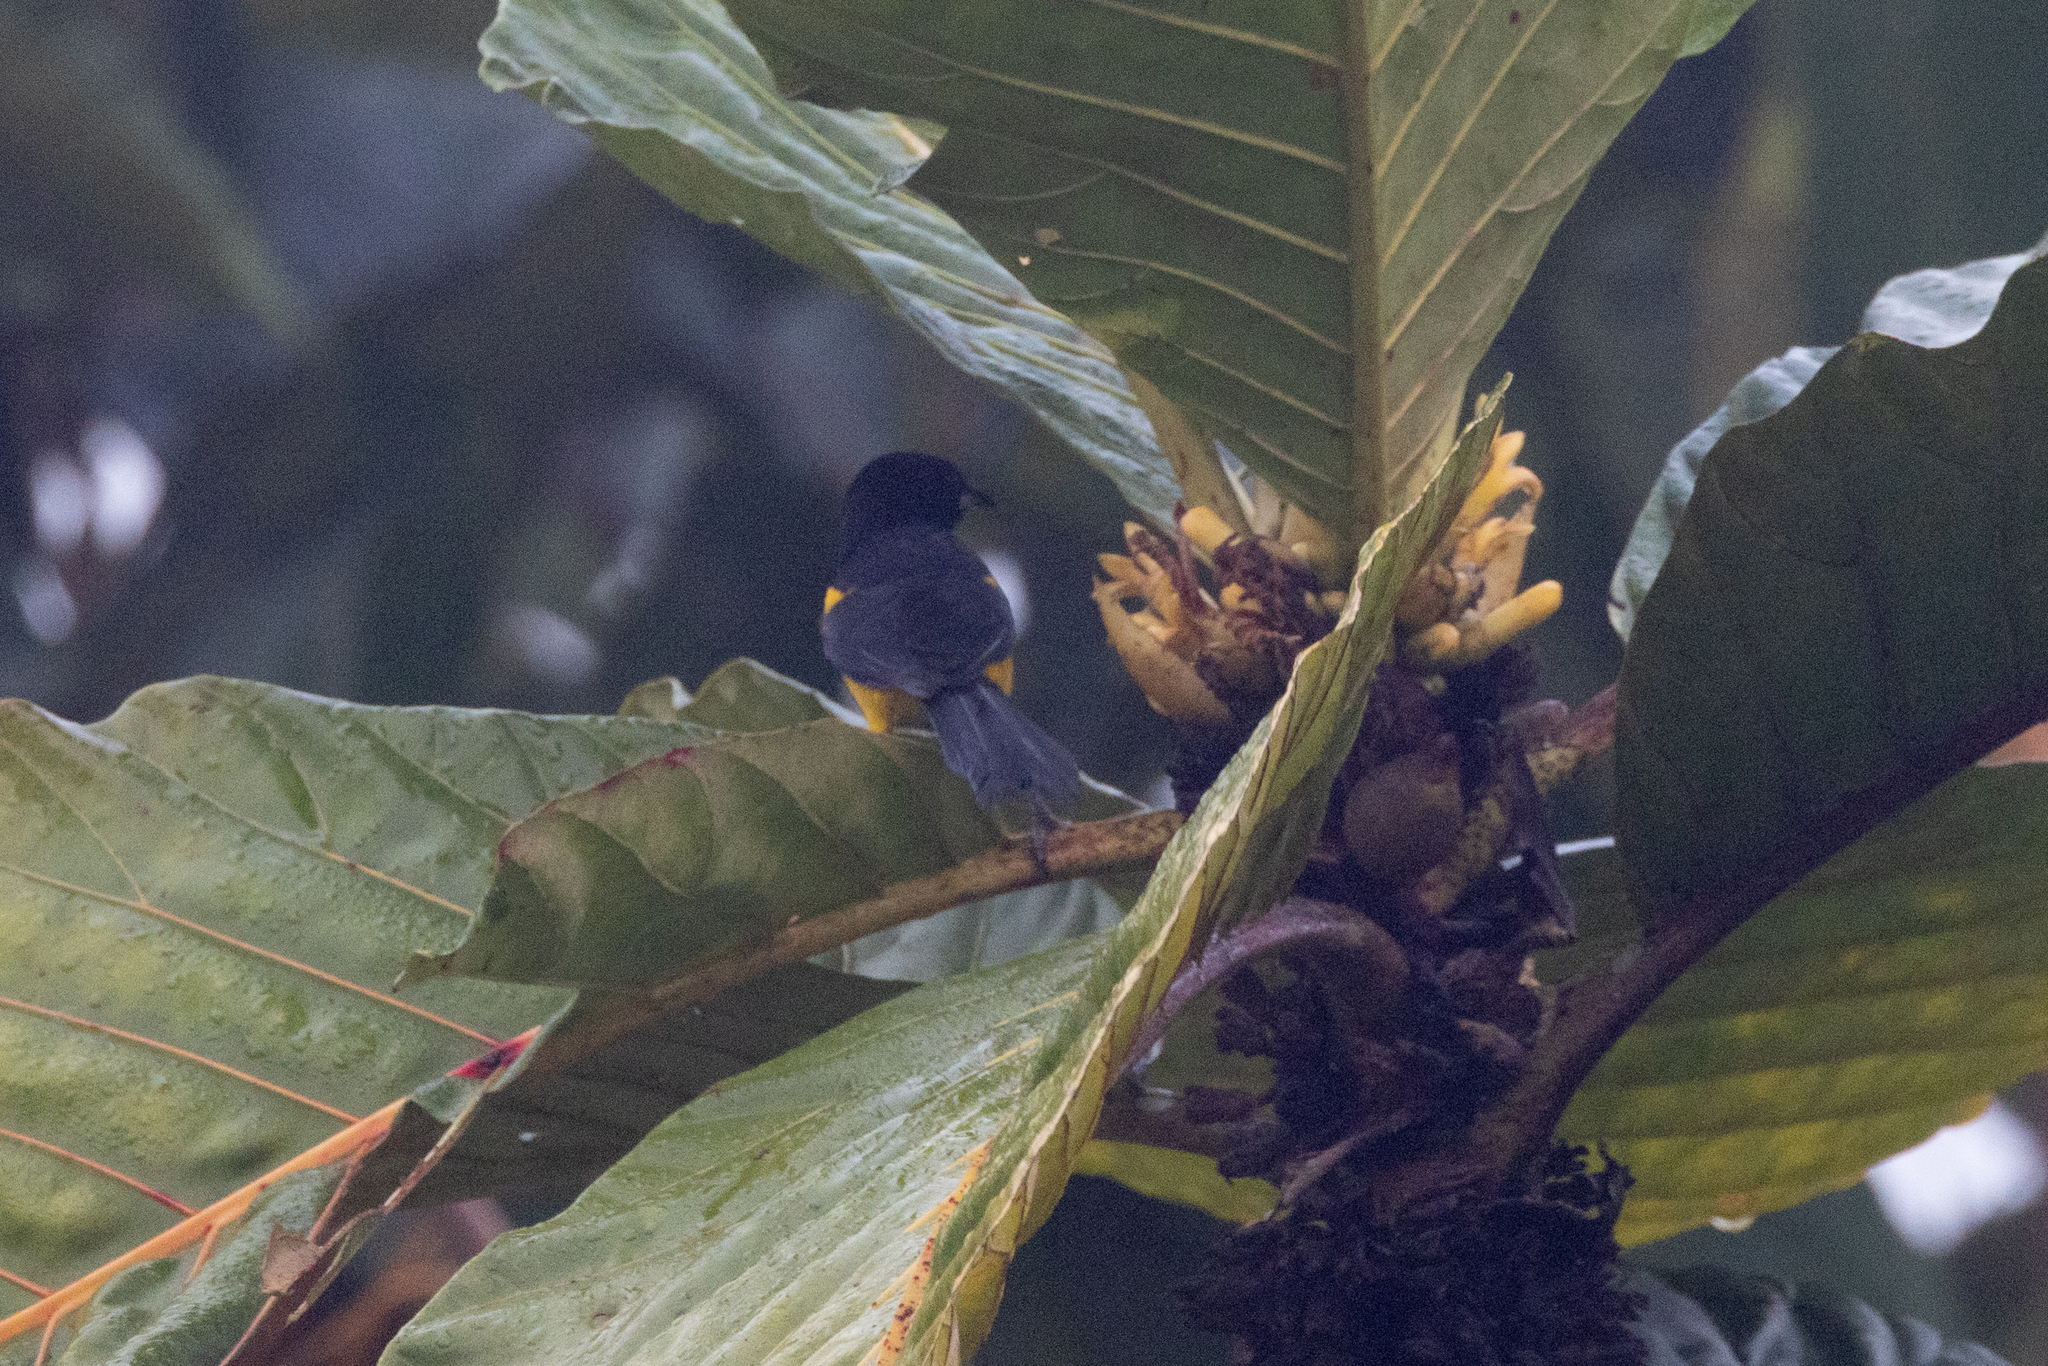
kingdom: Animalia
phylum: Chordata
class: Aves
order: Passeriformes
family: Icteridae
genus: Icterus
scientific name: Icterus prosthemelas
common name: Black-cowled oriole
